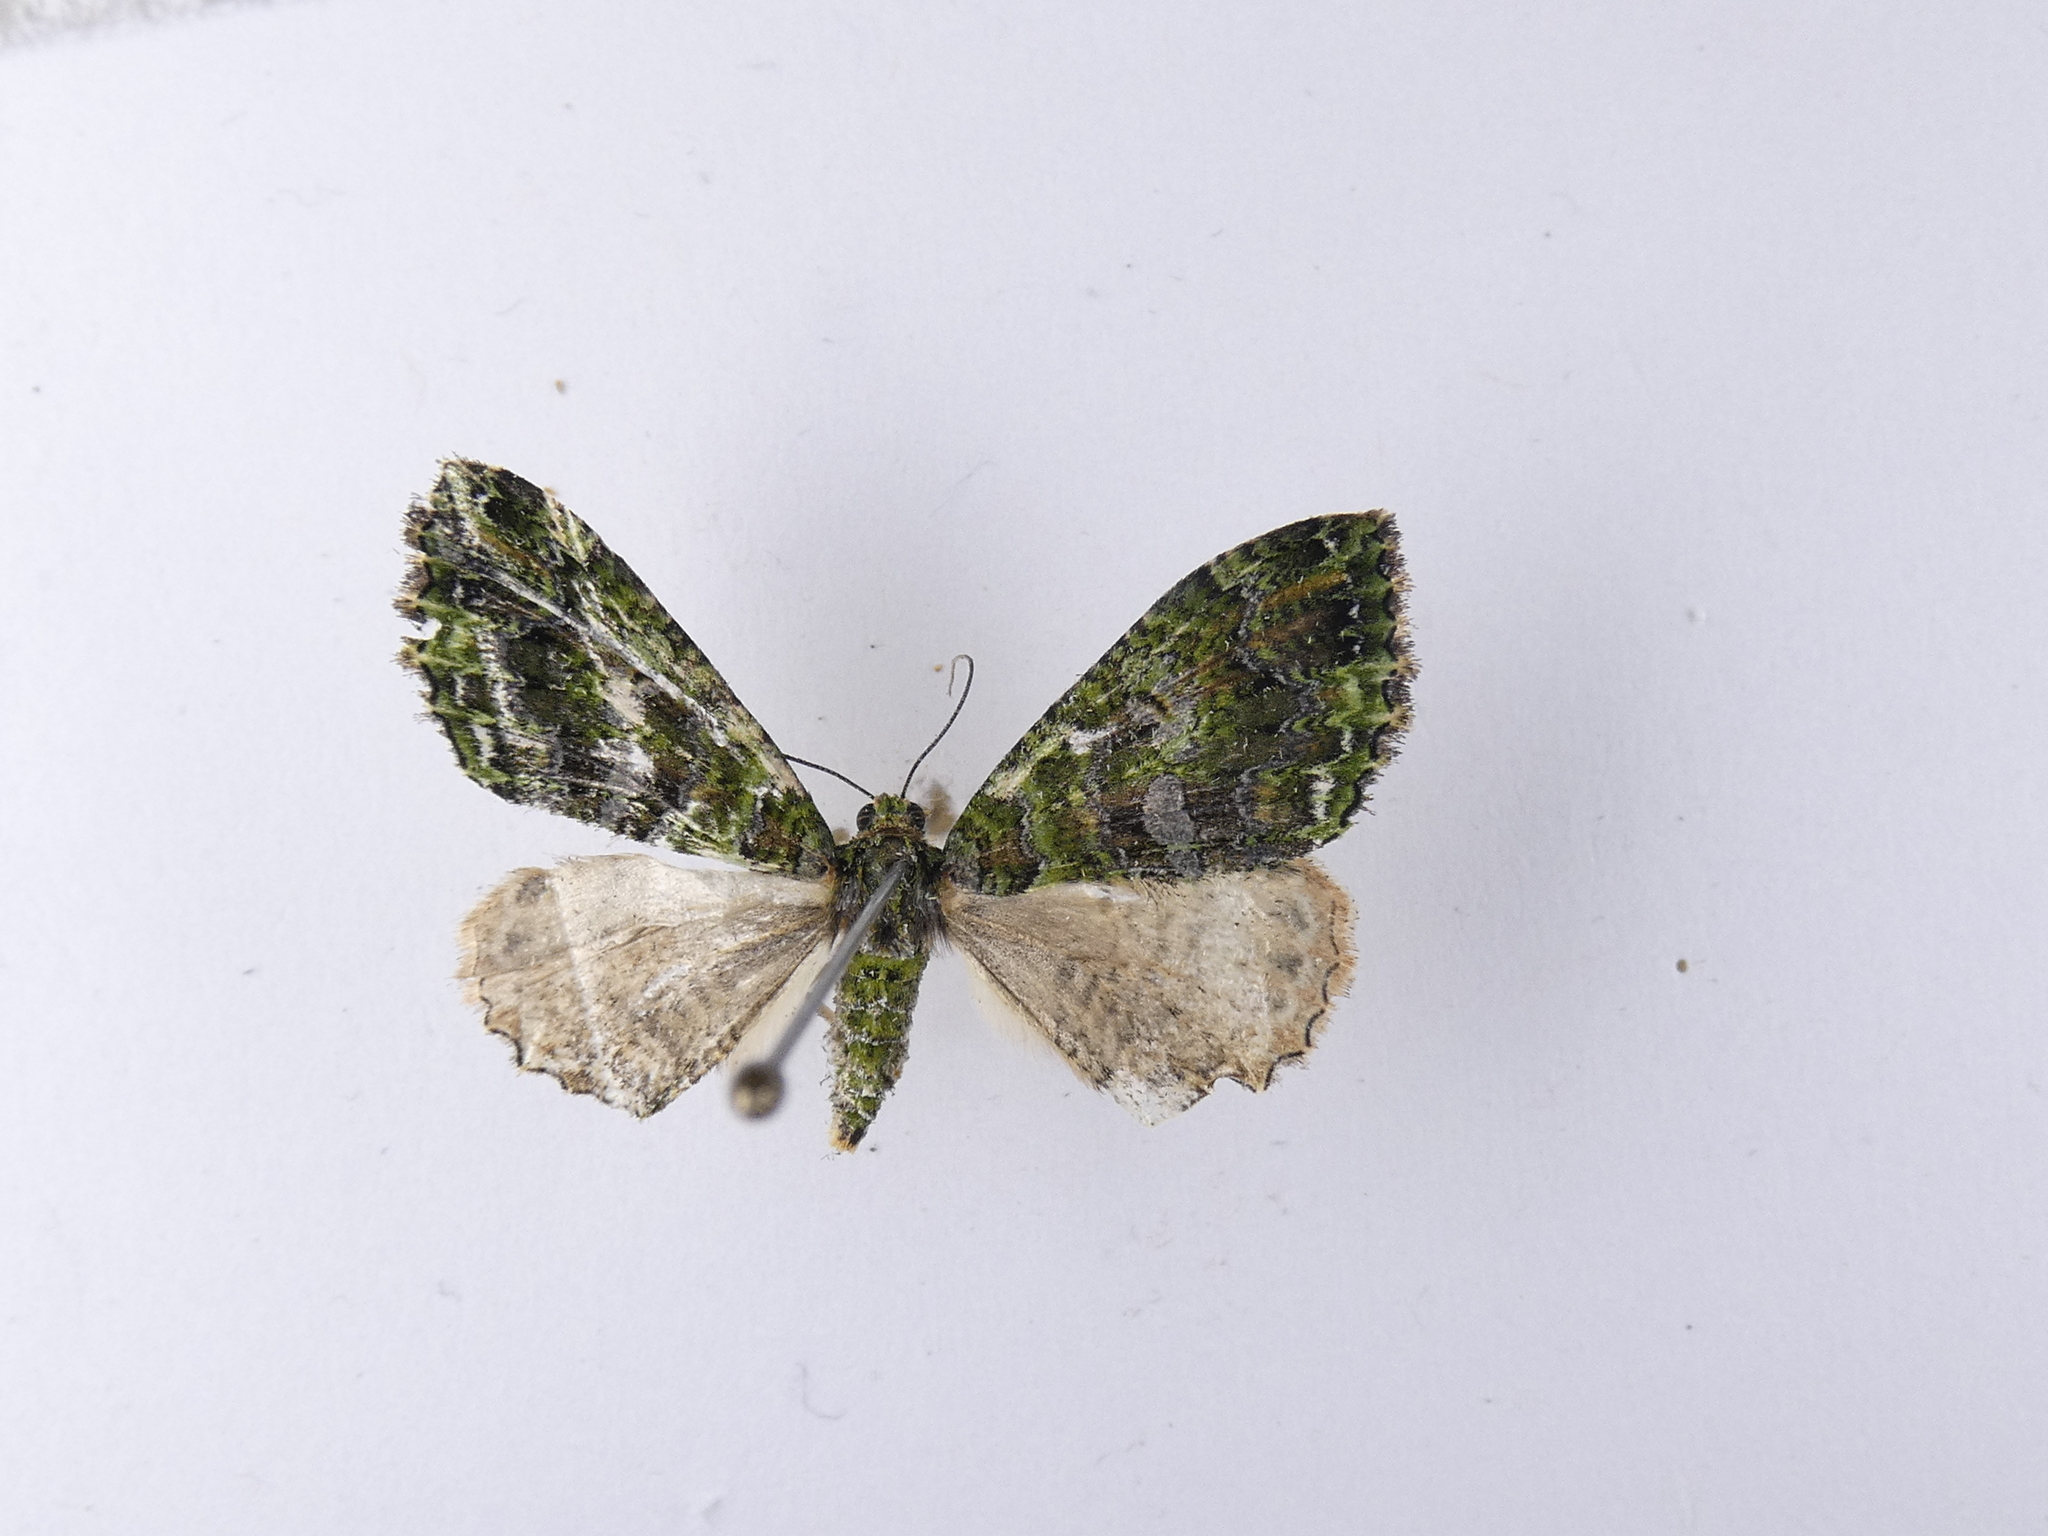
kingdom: Animalia
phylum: Arthropoda
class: Insecta
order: Lepidoptera
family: Geometridae
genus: Austrocidaria
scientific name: Austrocidaria similata
